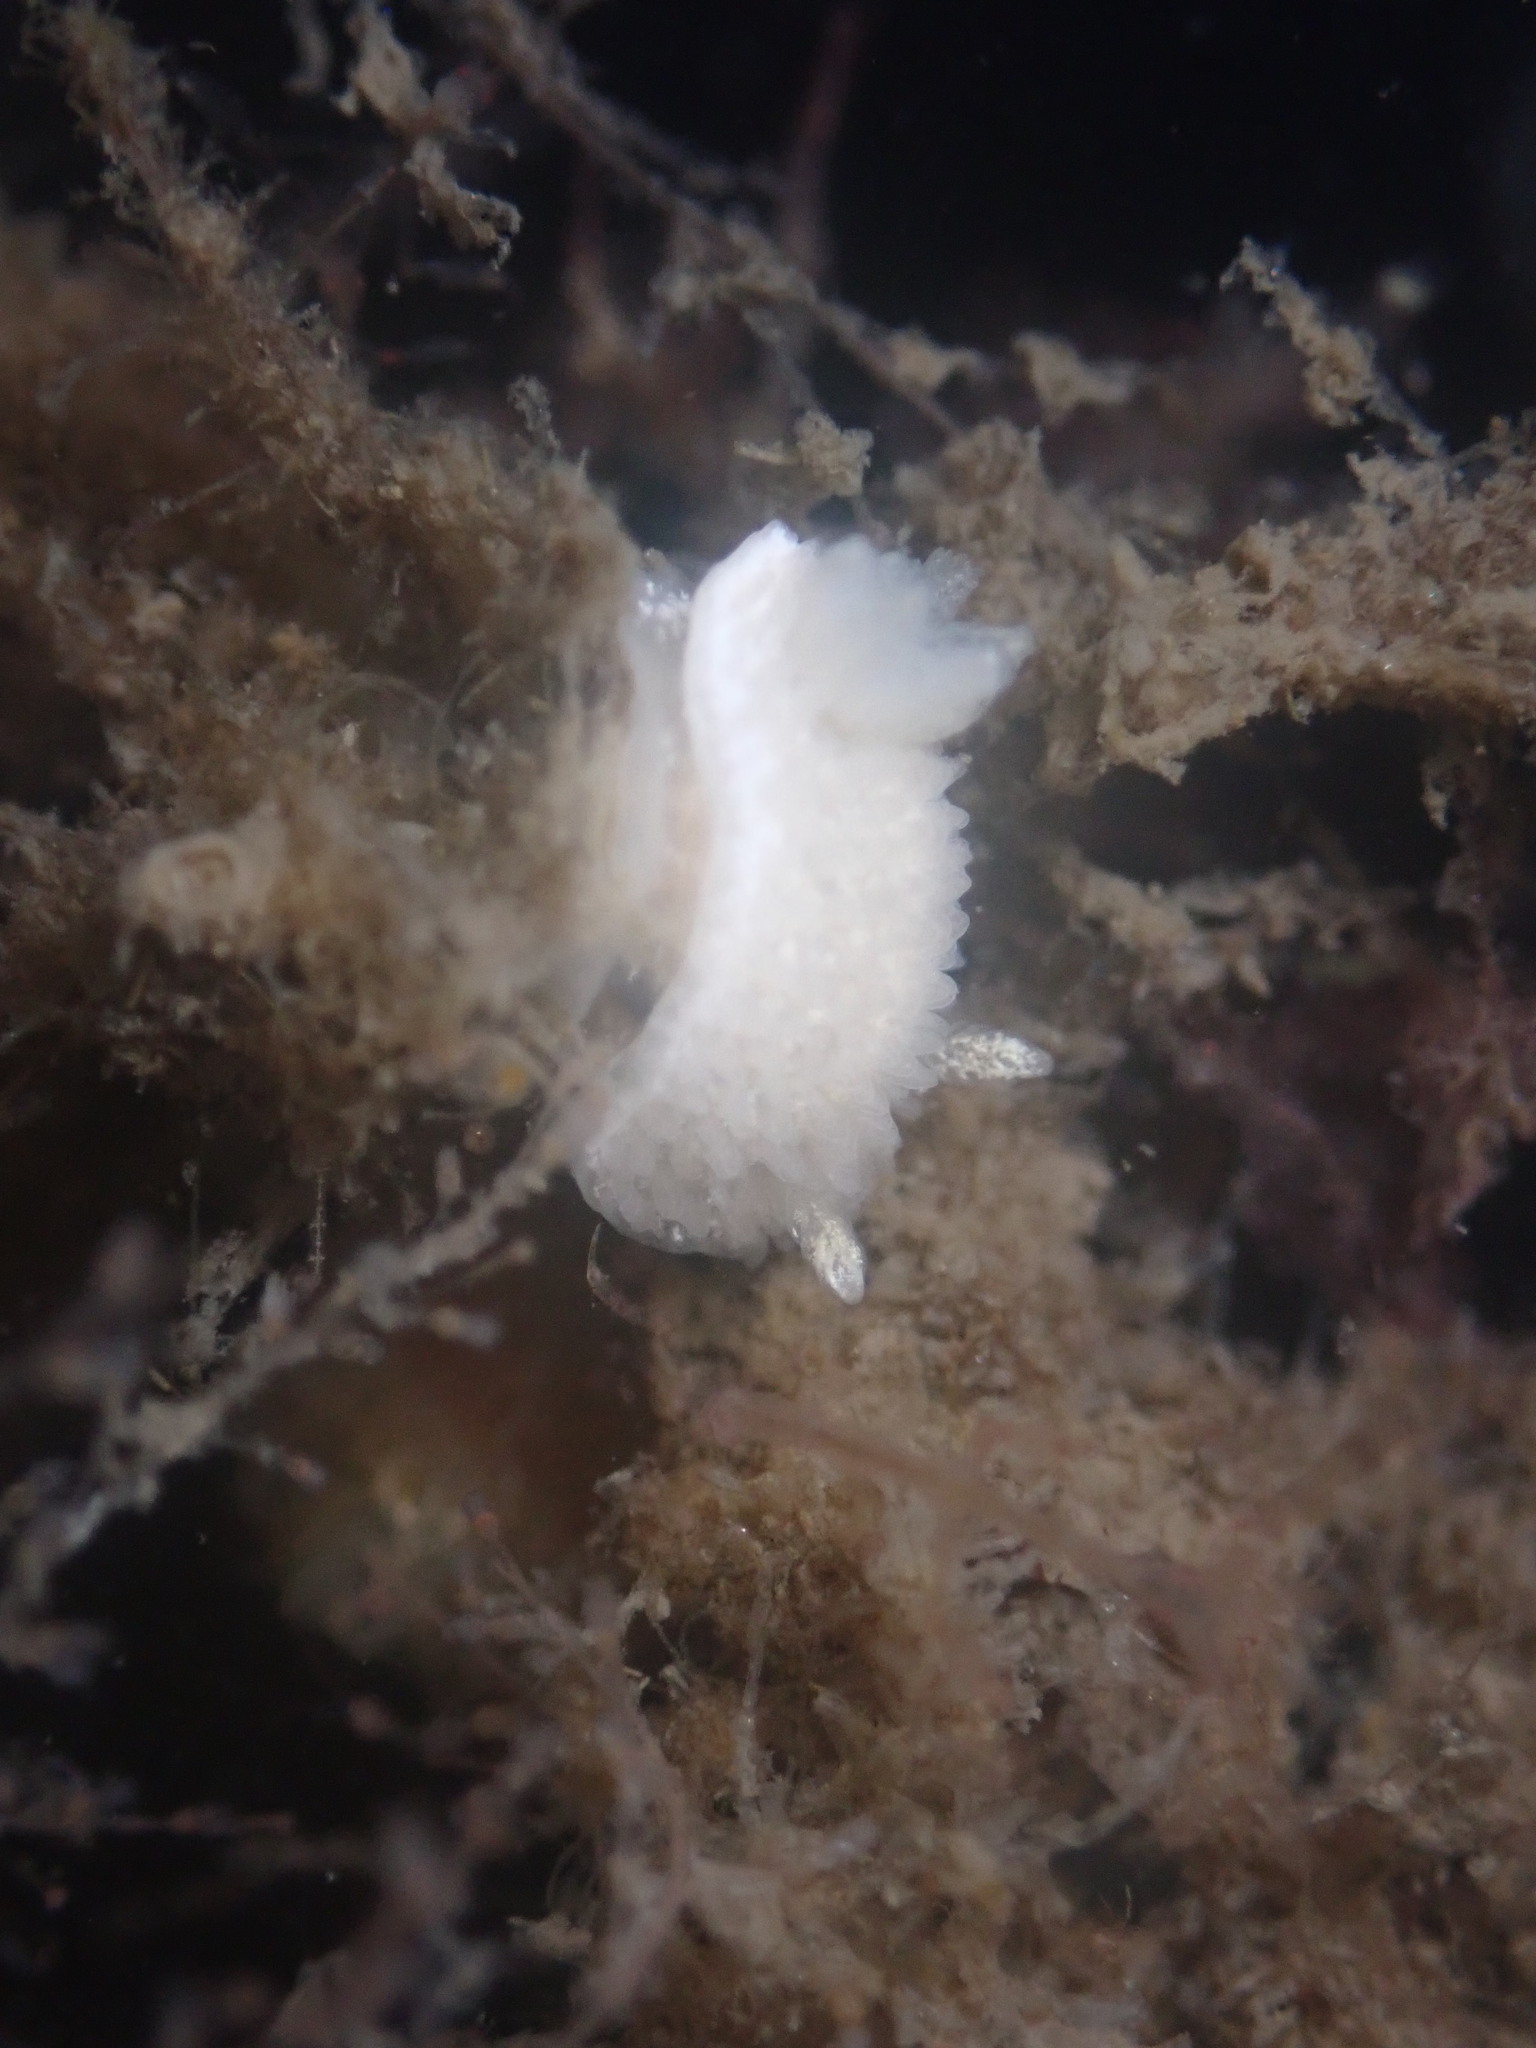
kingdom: Animalia
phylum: Mollusca
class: Gastropoda
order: Nudibranchia
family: Calycidorididae
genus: Diaphorodoris
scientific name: Diaphorodoris lirulatocauda
